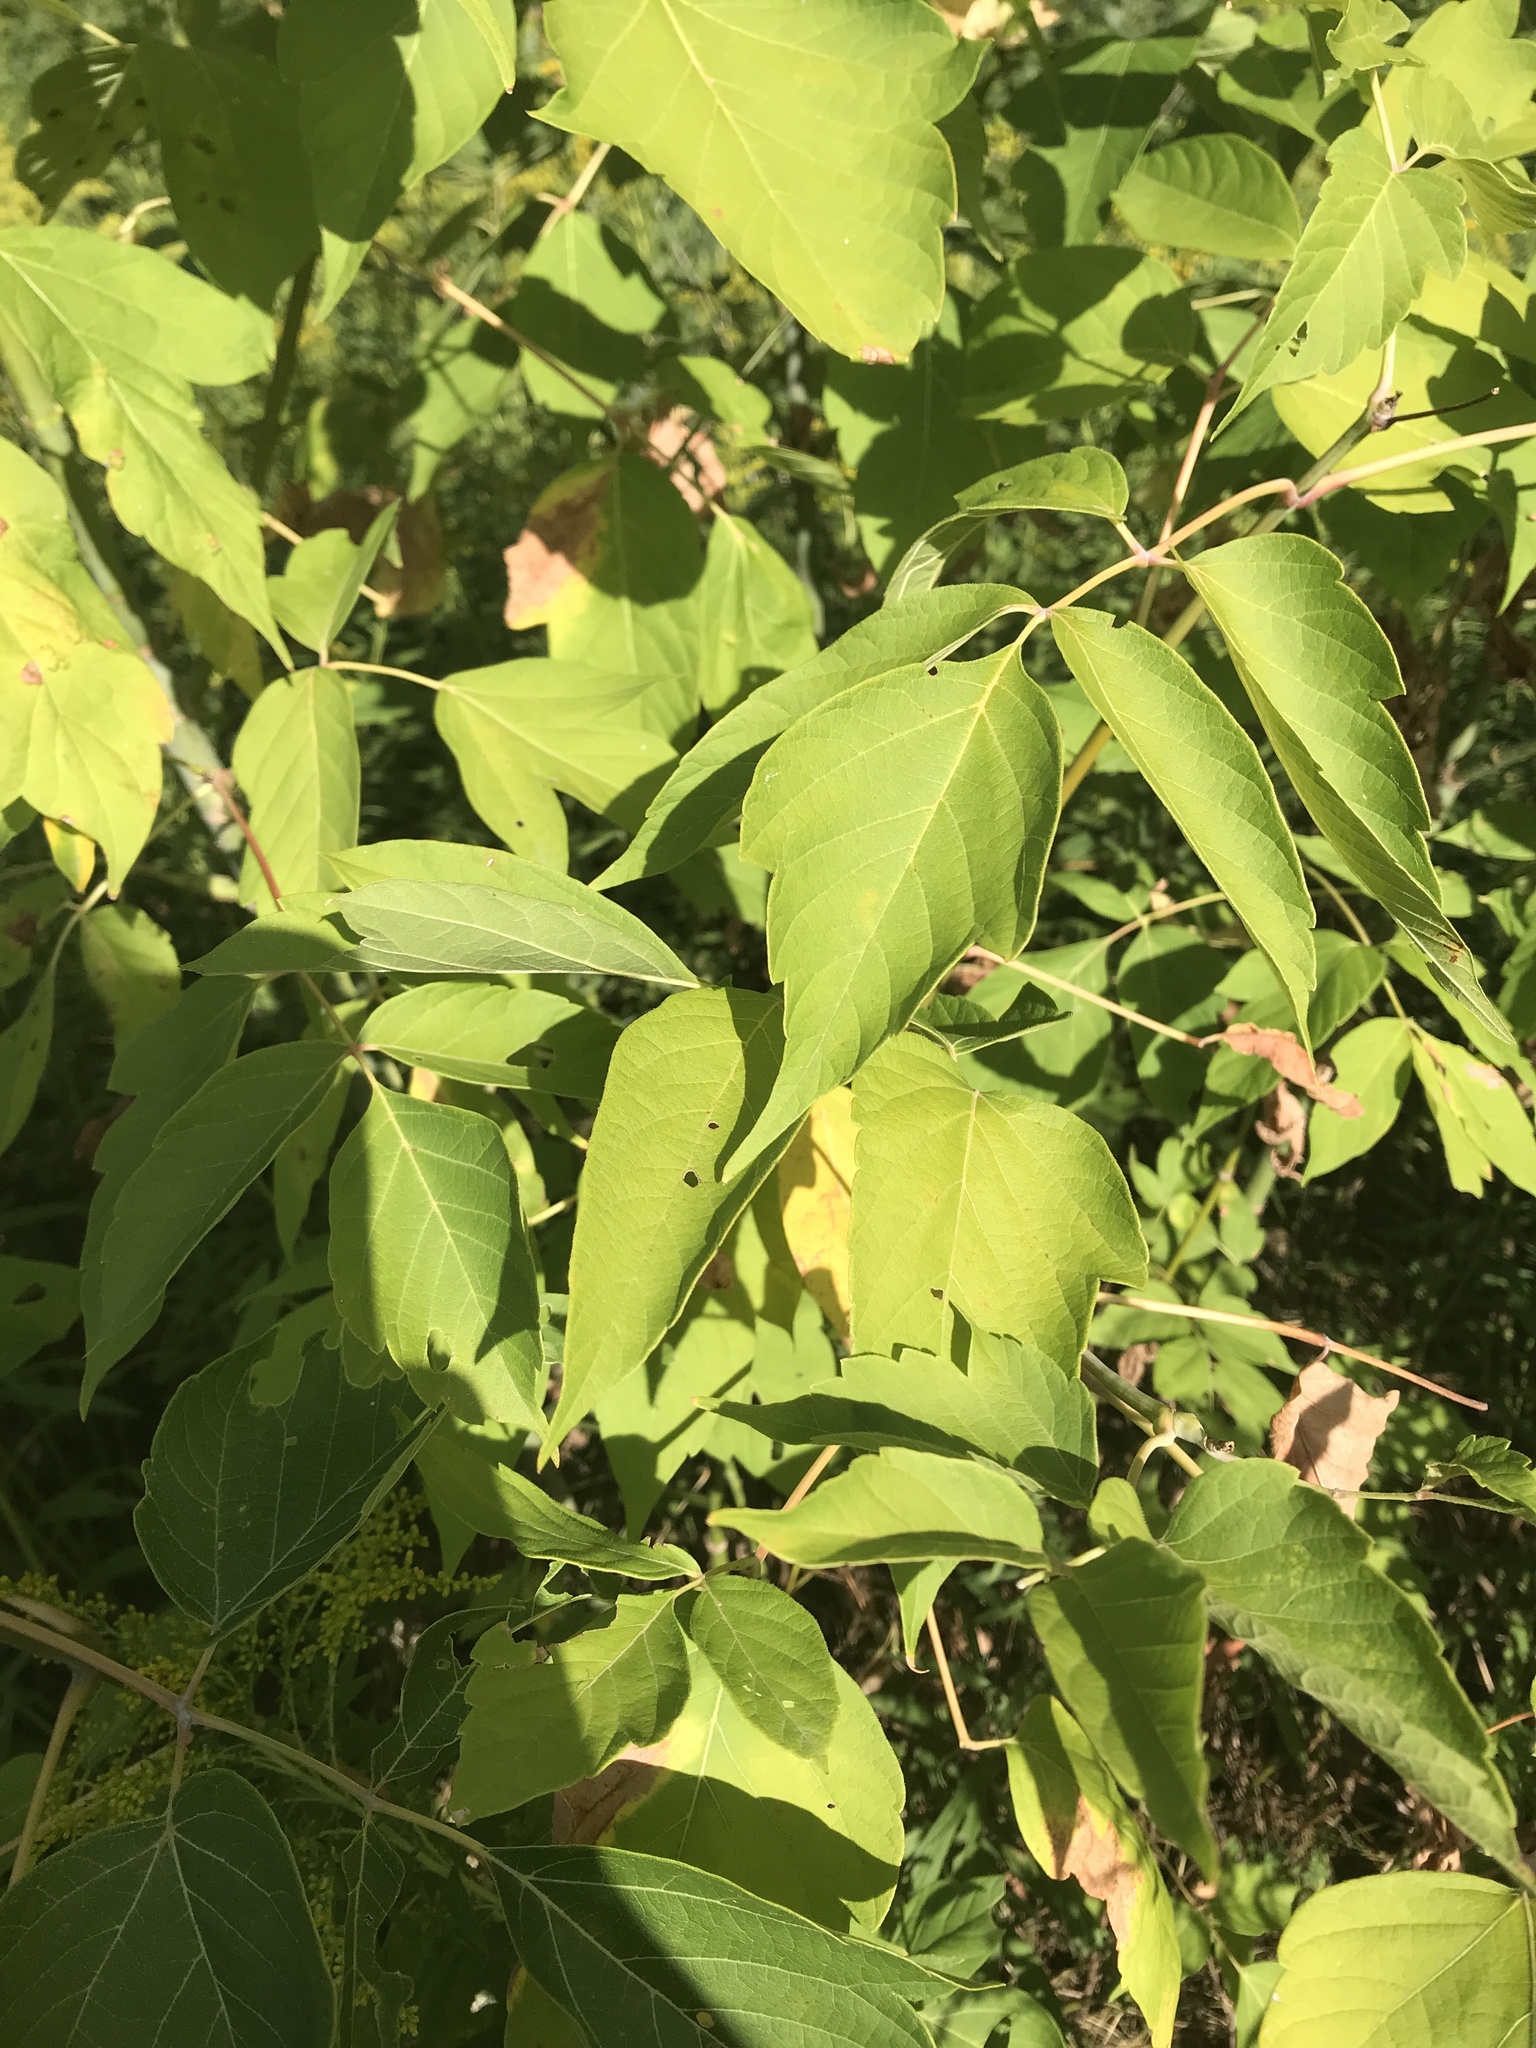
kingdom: Plantae
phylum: Tracheophyta
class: Magnoliopsida
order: Sapindales
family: Sapindaceae
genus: Acer
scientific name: Acer negundo
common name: Ashleaf maple
